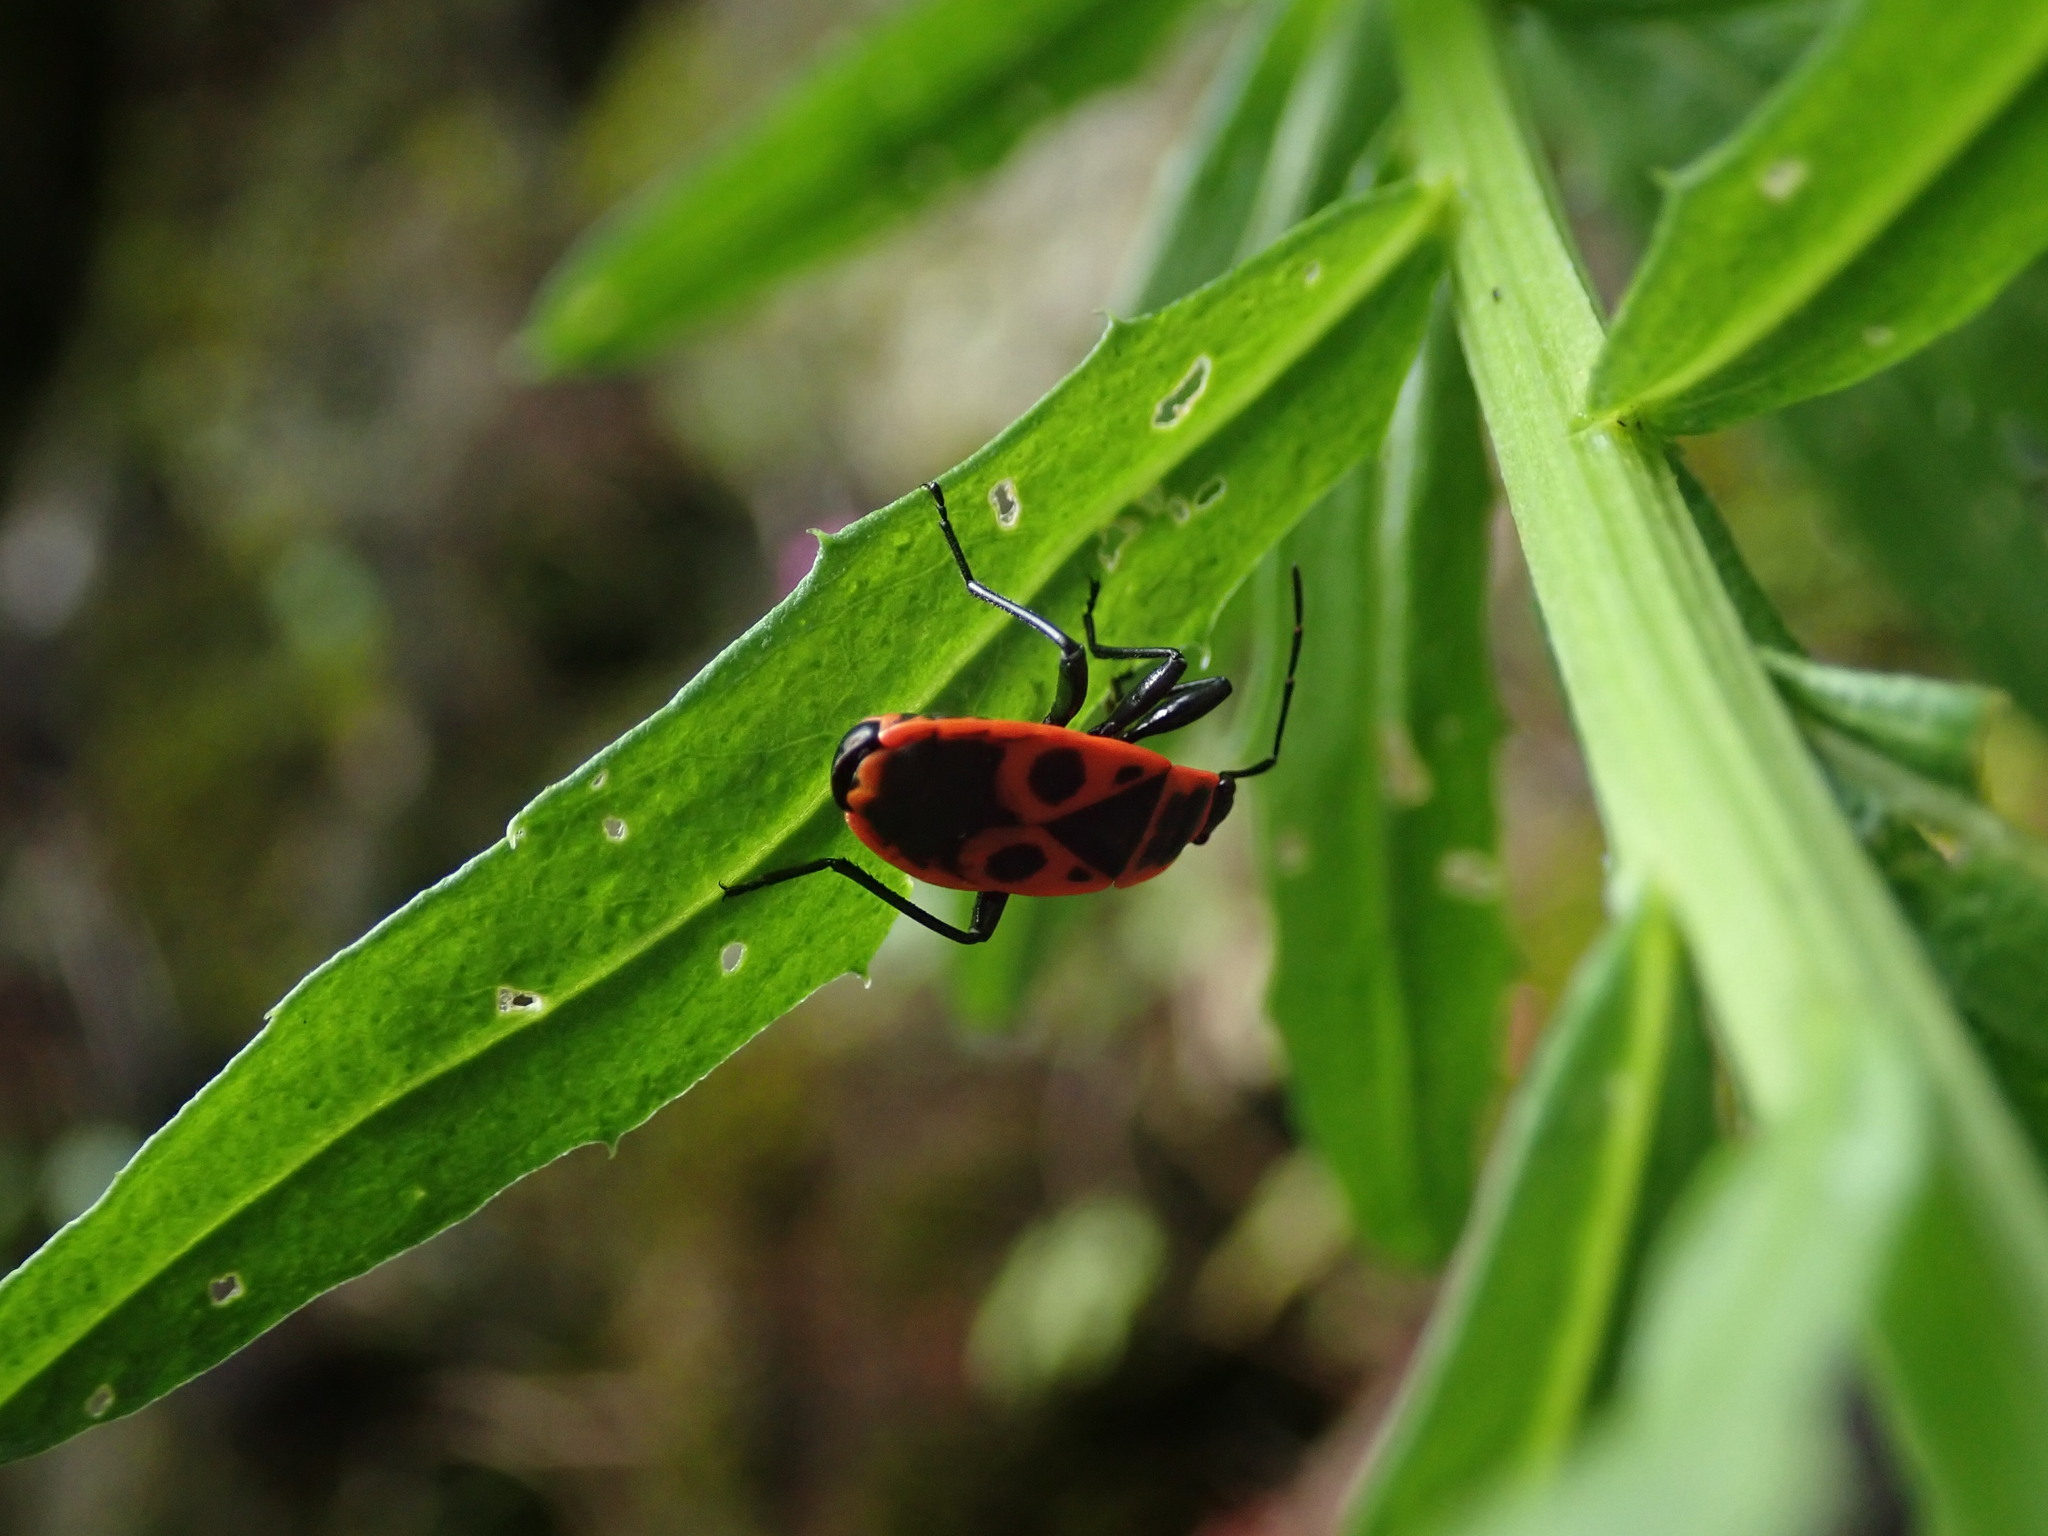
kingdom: Animalia
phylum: Arthropoda
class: Insecta
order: Hemiptera
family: Pyrrhocoridae
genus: Pyrrhocoris
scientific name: Pyrrhocoris apterus
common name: Firebug
